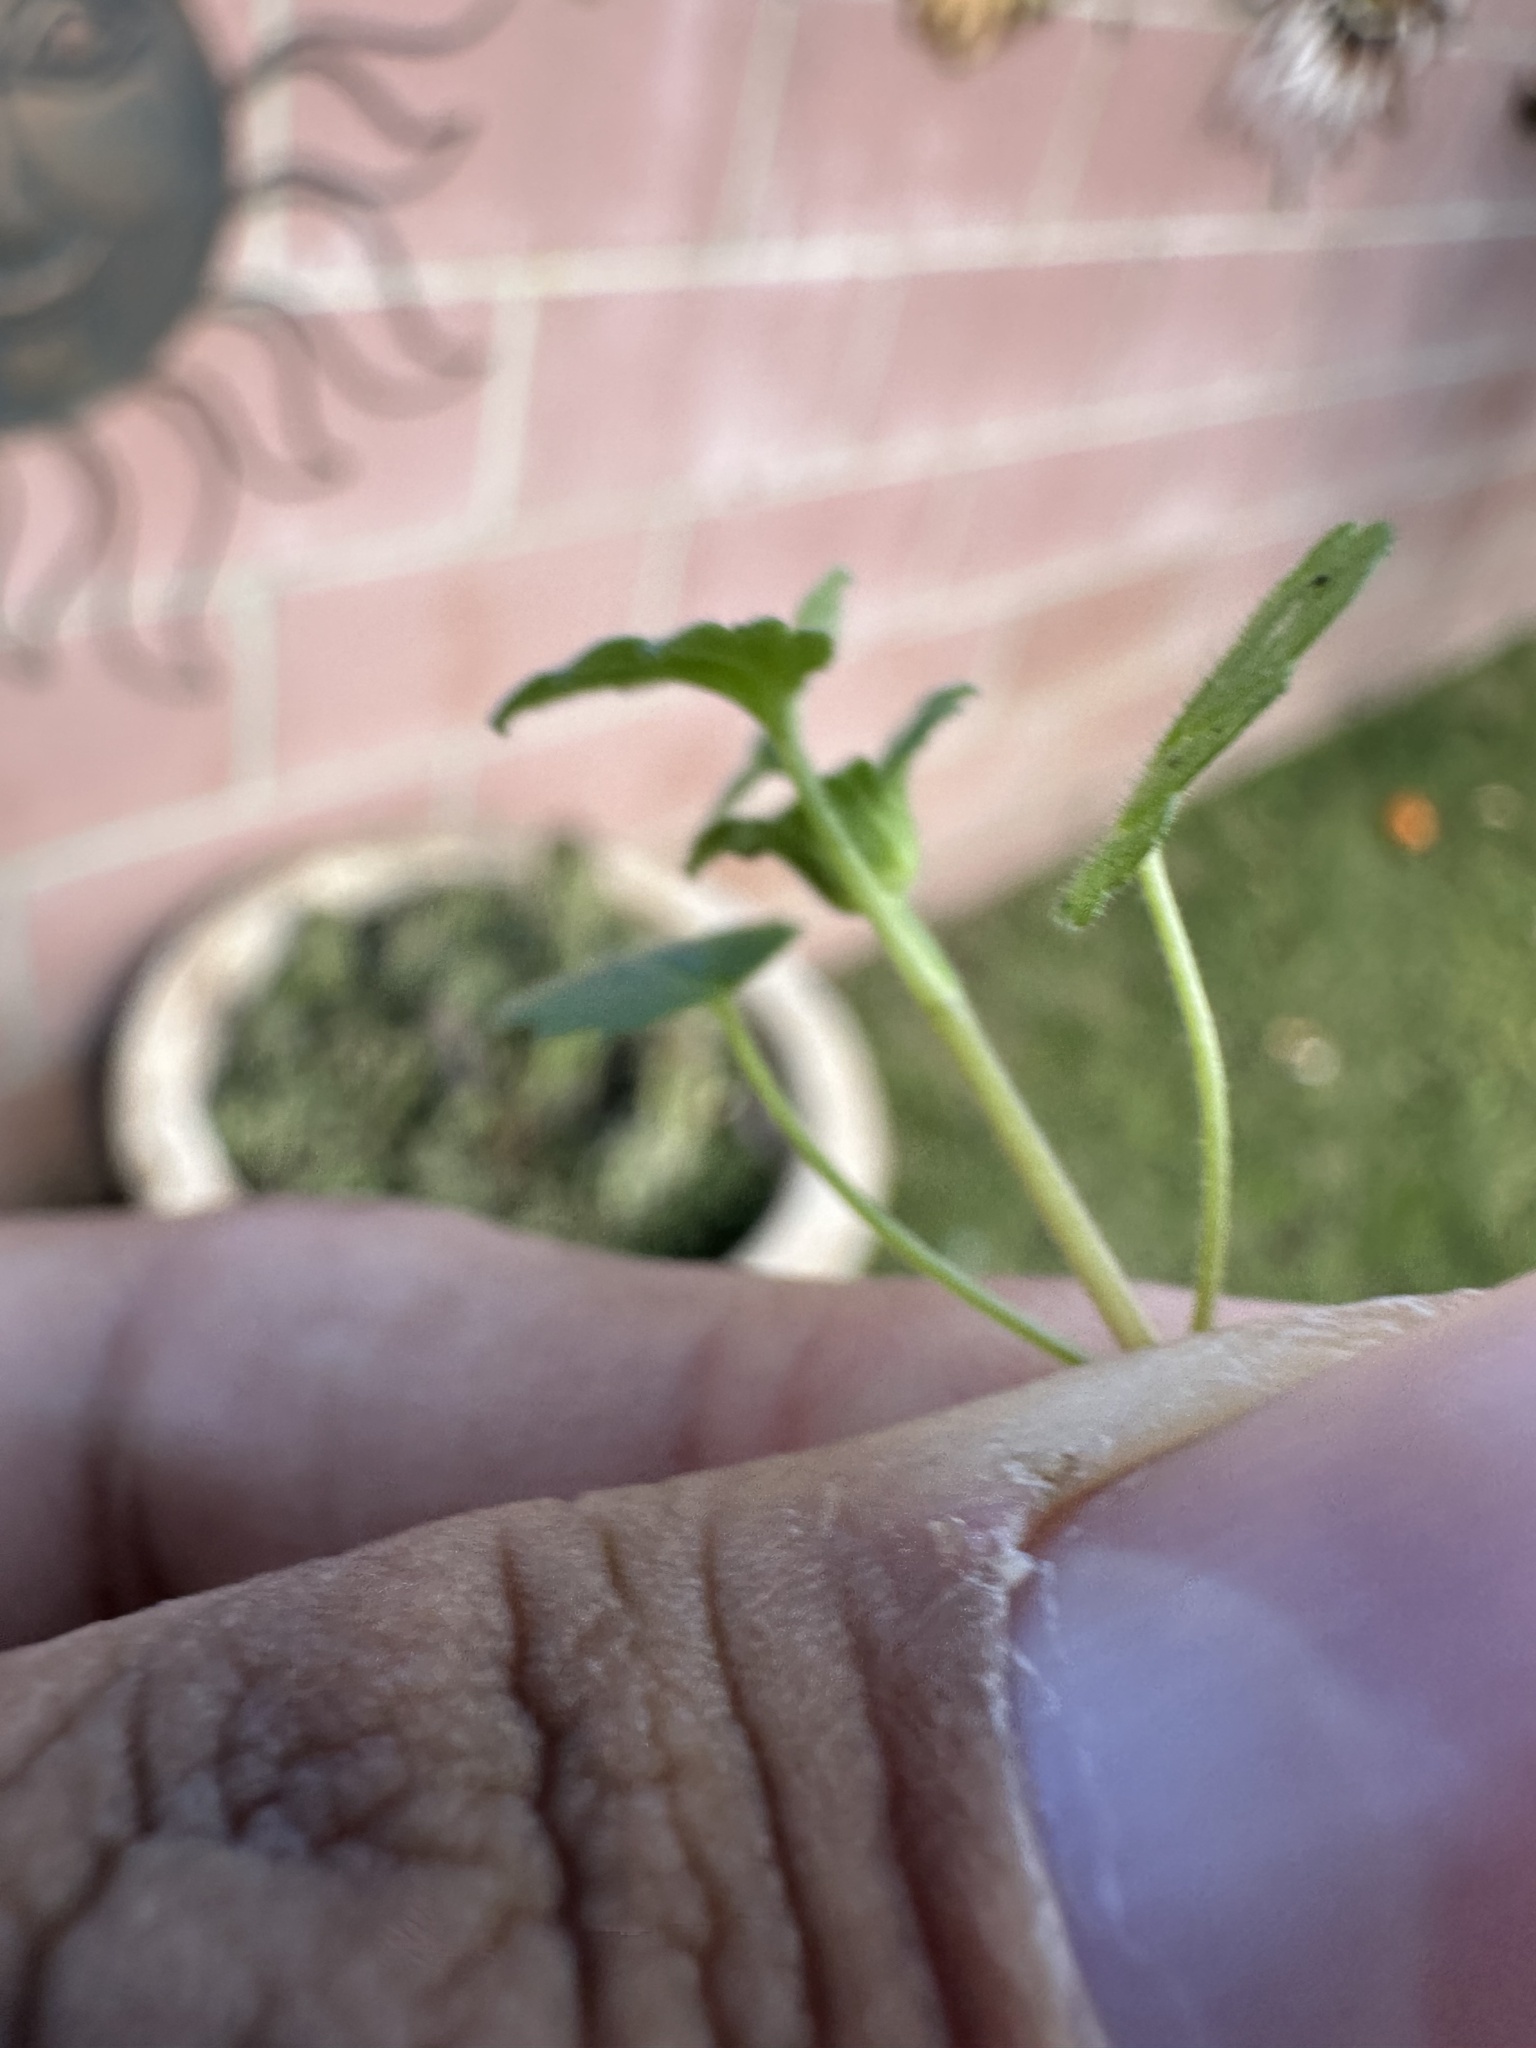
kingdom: Plantae
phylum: Tracheophyta
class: Magnoliopsida
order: Lamiales
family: Lamiaceae
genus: Lamium
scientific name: Lamium amplexicaule
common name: Henbit dead-nettle
